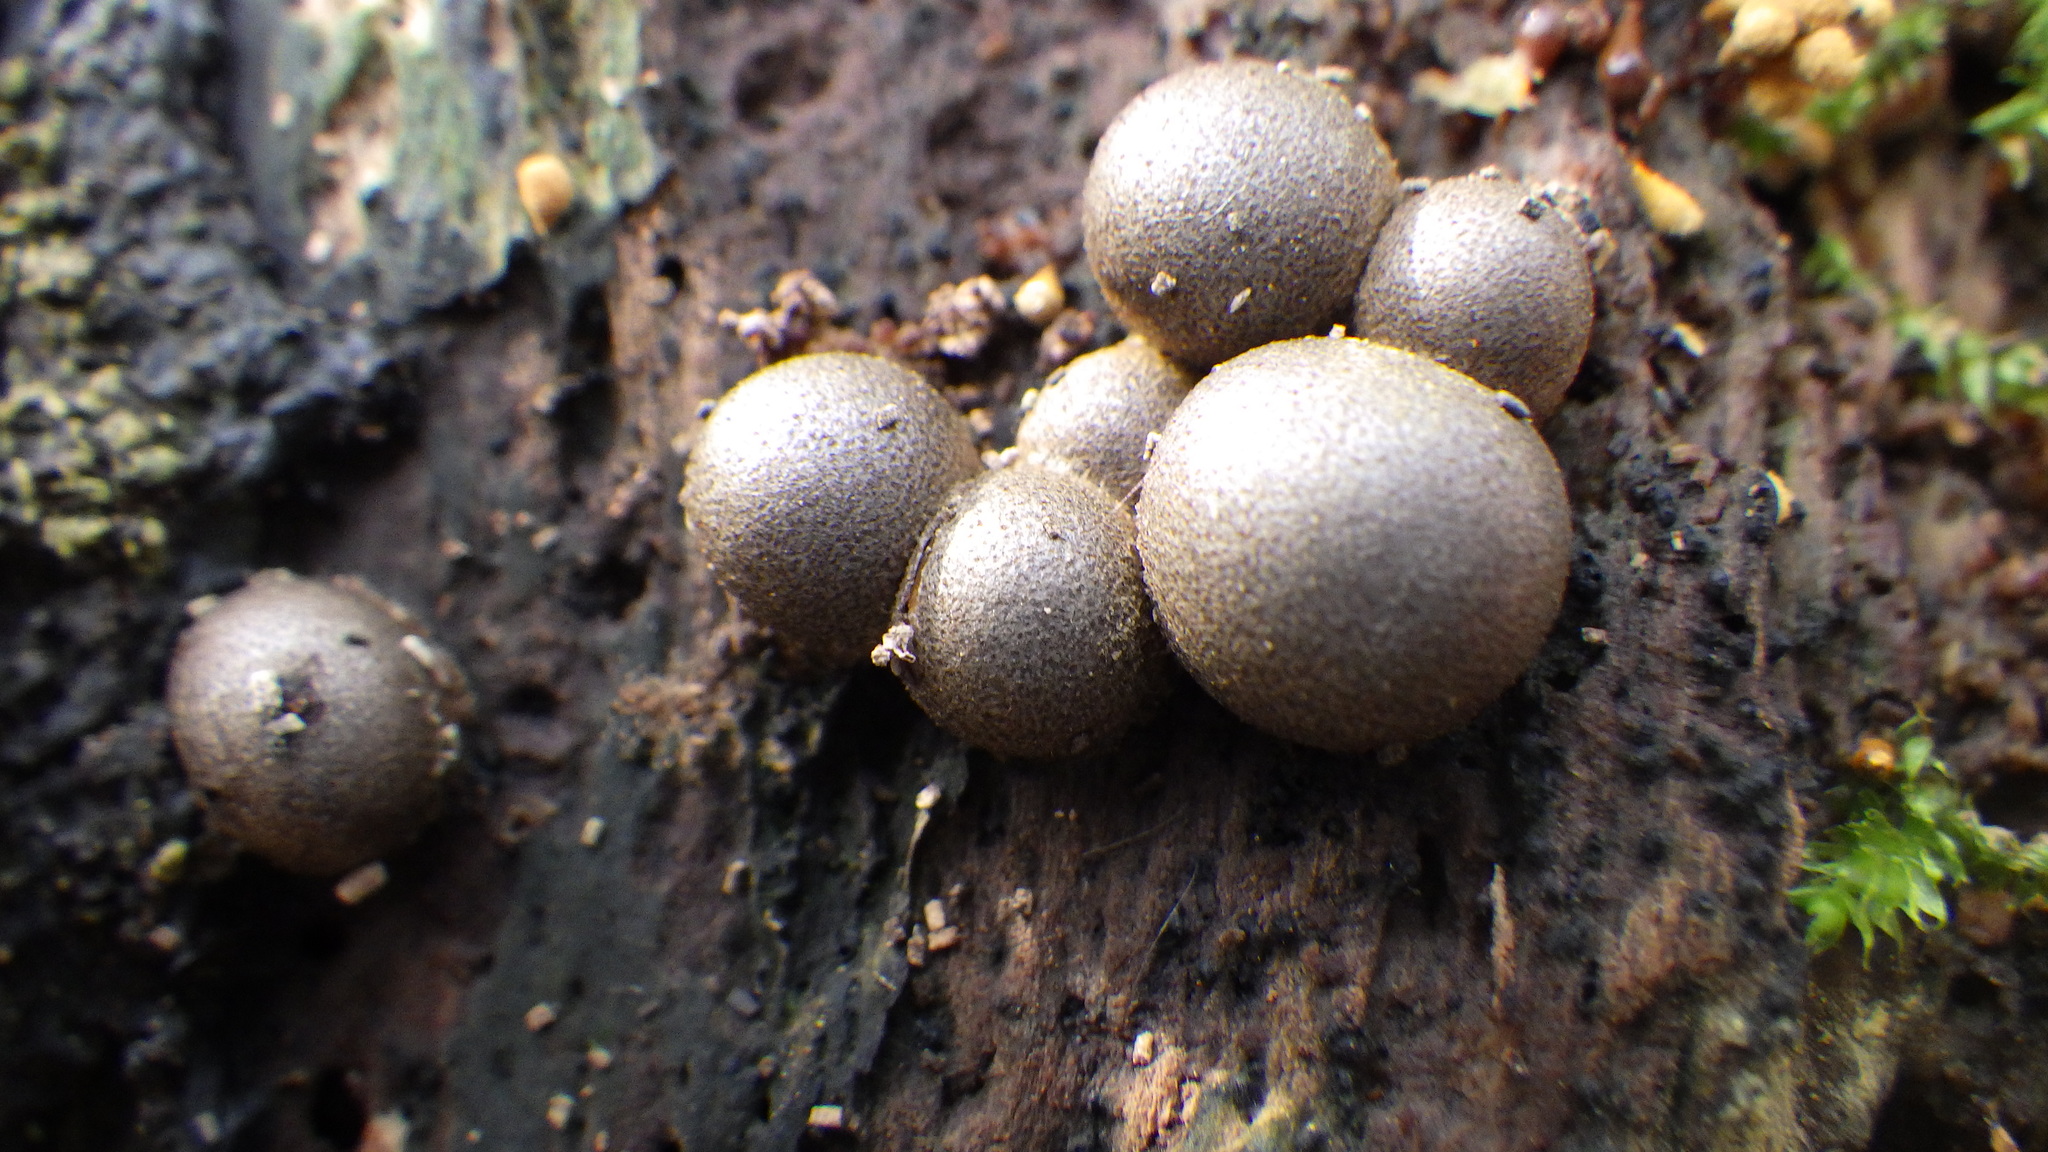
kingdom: Protozoa
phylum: Mycetozoa
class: Myxomycetes
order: Cribrariales
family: Tubiferaceae
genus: Lycogala
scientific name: Lycogala epidendrum
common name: Wolf's milk
